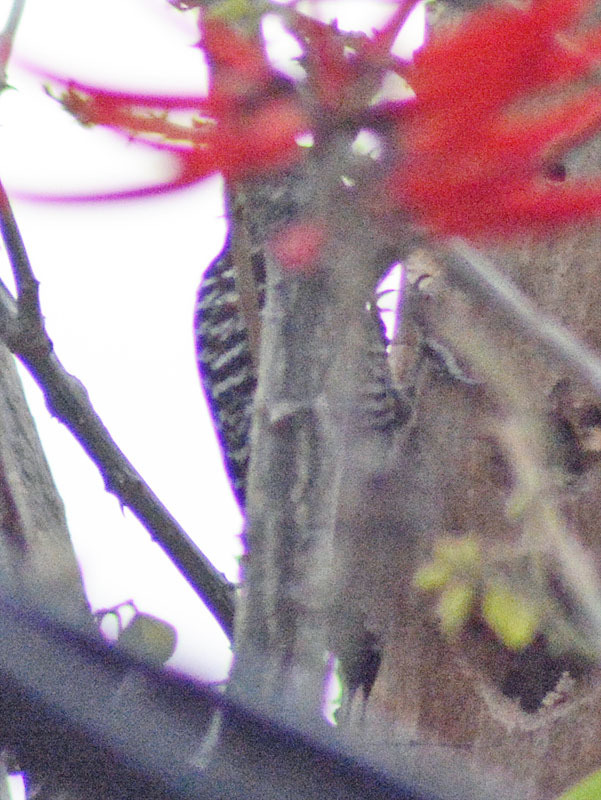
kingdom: Animalia
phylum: Chordata
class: Aves
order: Piciformes
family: Picidae
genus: Dryobates
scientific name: Dryobates scalaris
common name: Ladder-backed woodpecker
